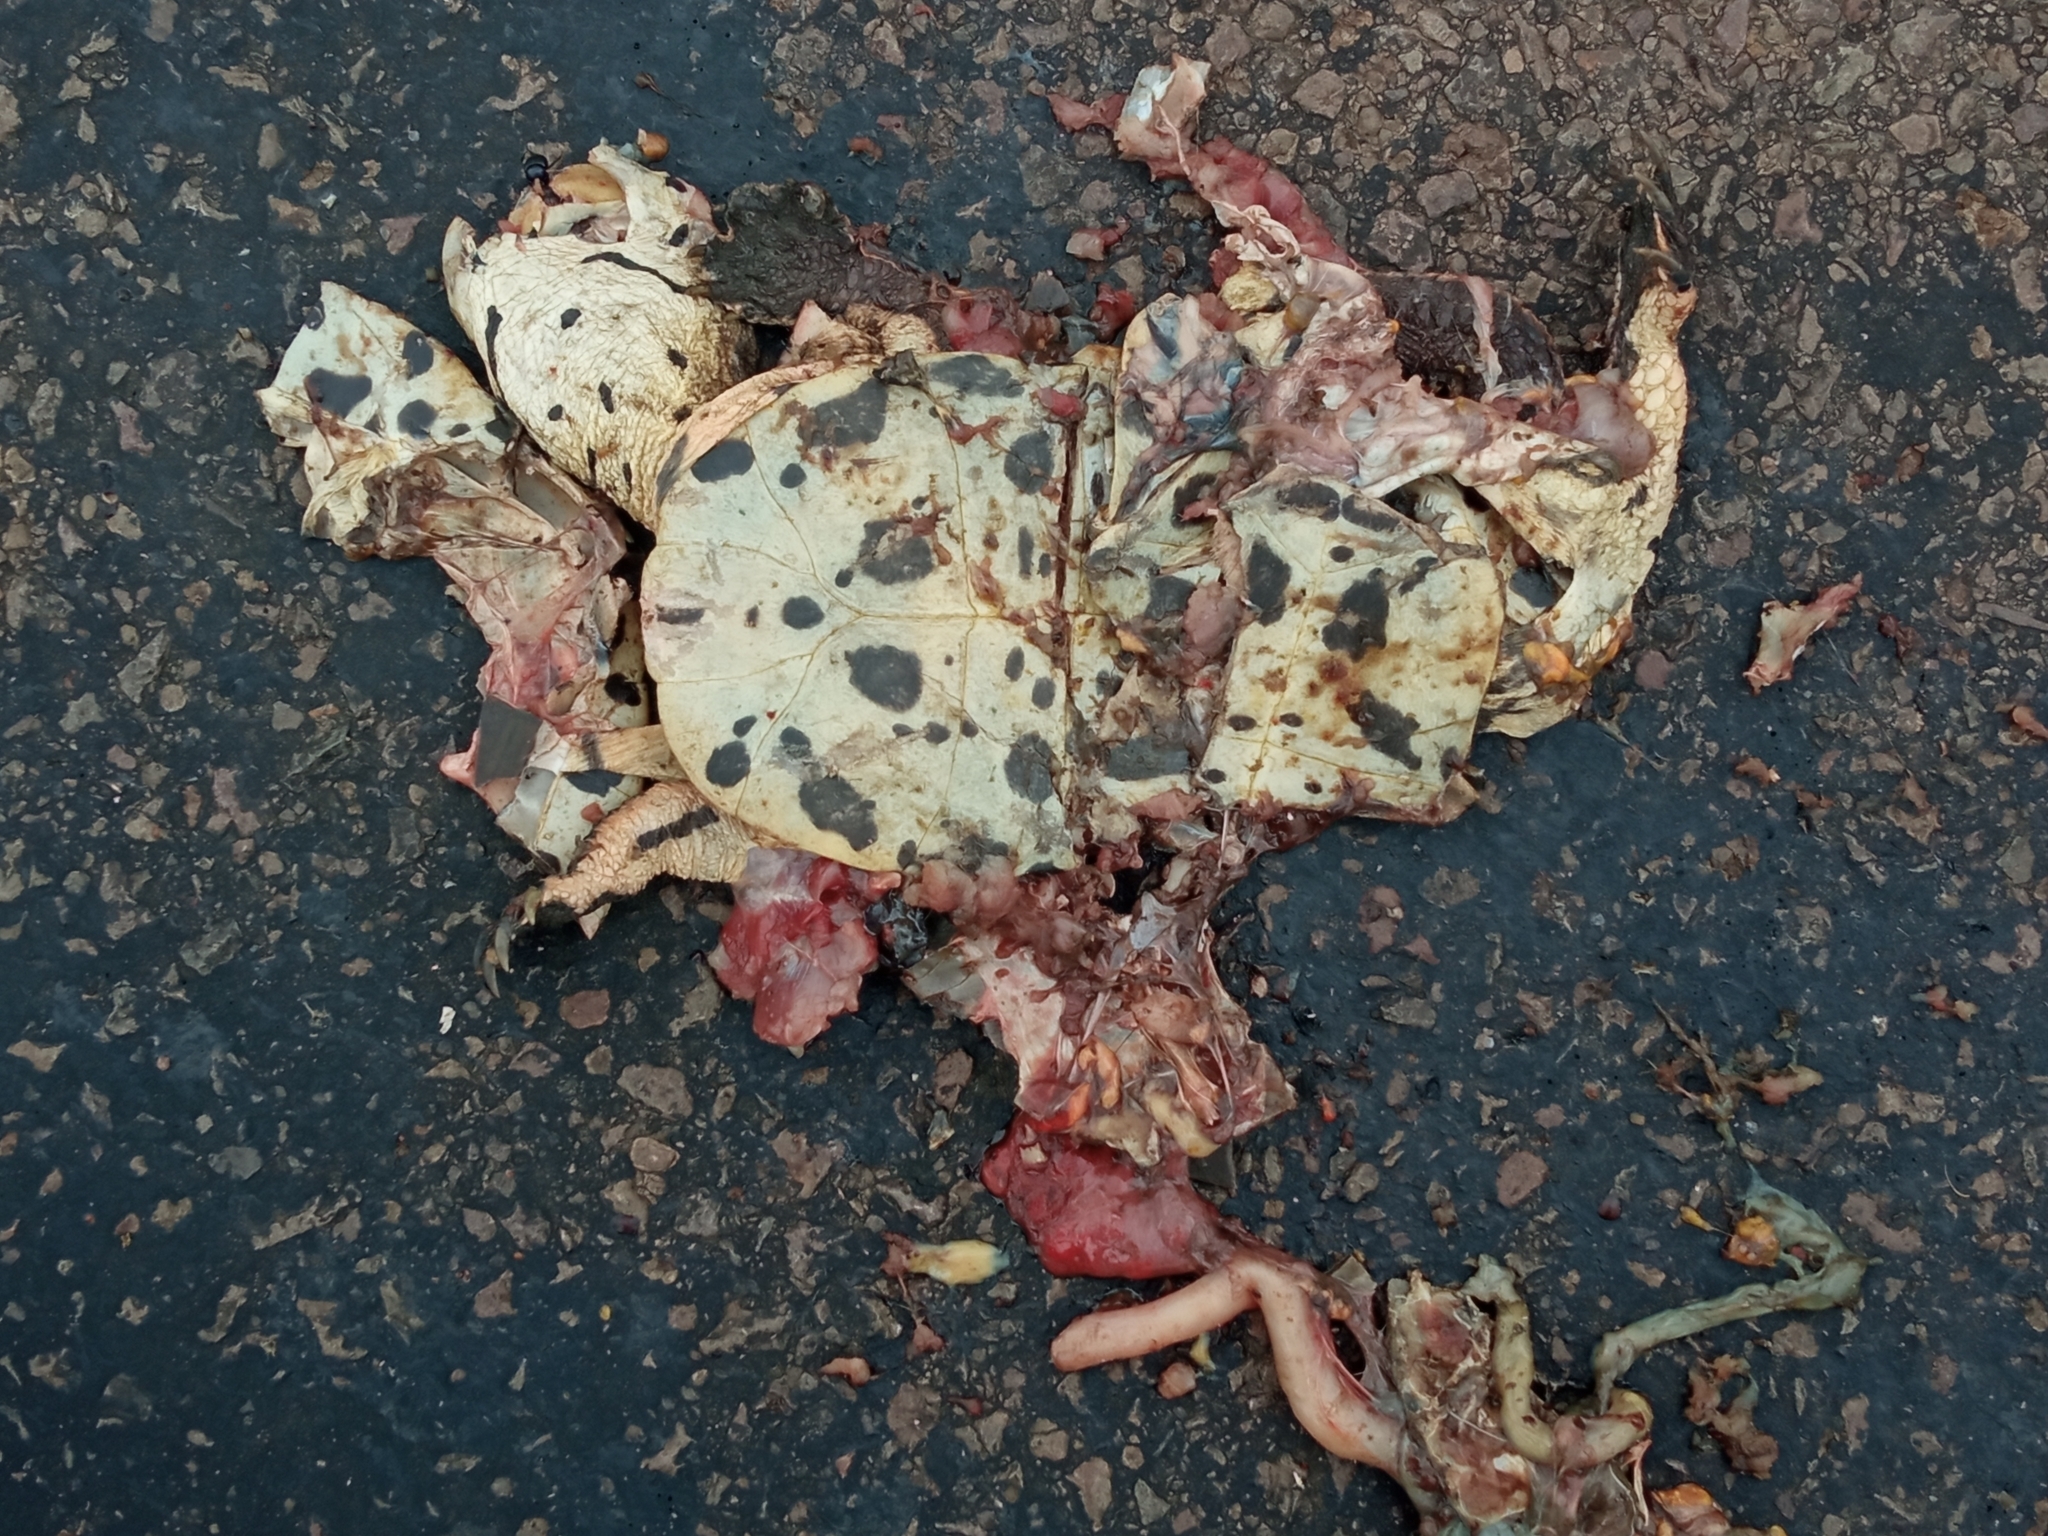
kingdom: Animalia
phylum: Chordata
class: Testudines
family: Chelidae
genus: Phrynops
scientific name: Phrynops hilarii
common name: Side-necked turtle of saint hillaire
